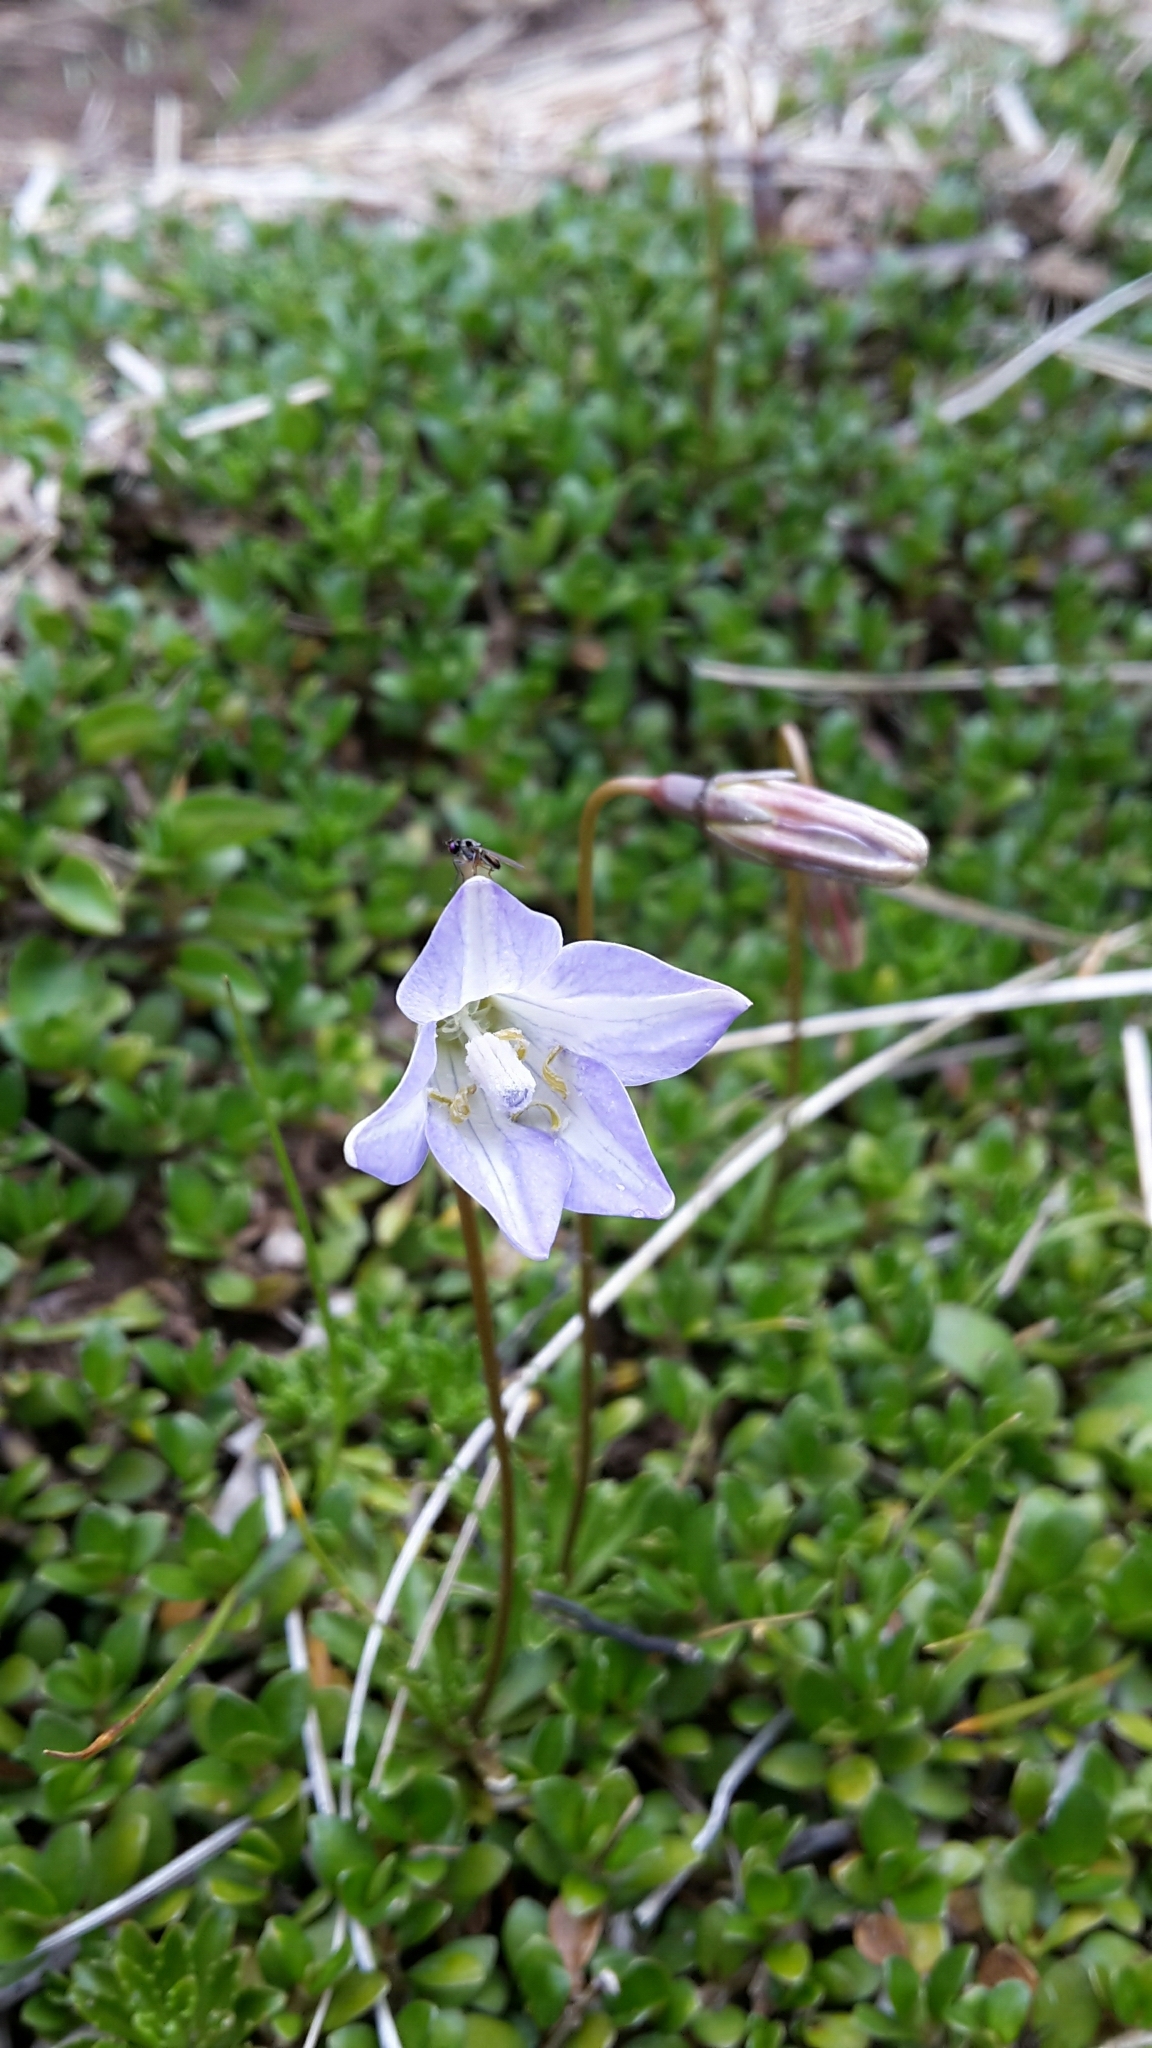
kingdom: Plantae
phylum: Tracheophyta
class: Magnoliopsida
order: Asterales
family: Campanulaceae
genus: Wahlenbergia
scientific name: Wahlenbergia pygmaea
